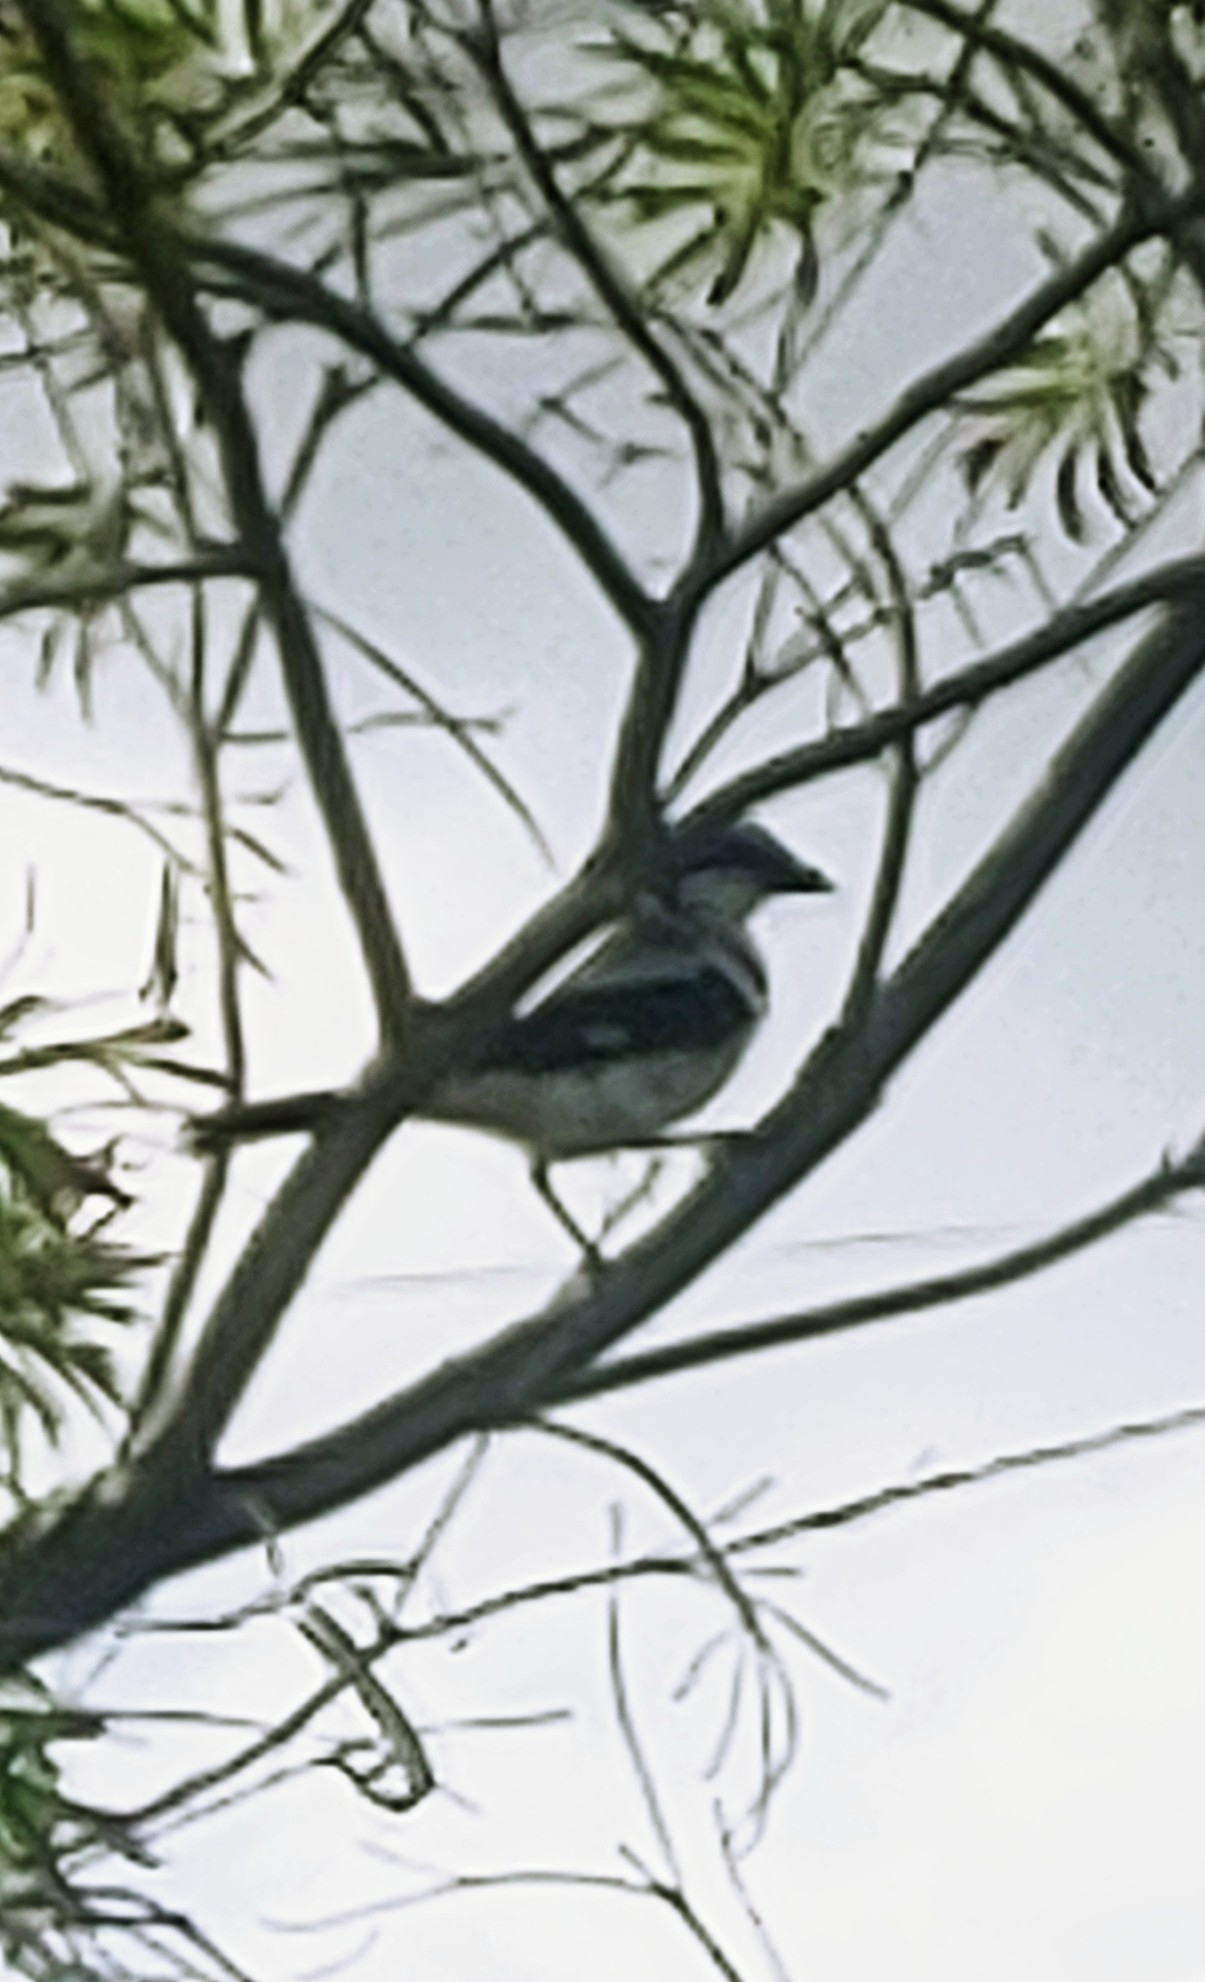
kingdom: Animalia
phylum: Chordata
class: Aves
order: Passeriformes
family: Laniidae
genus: Lanius
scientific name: Lanius ludovicianus
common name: Loggerhead shrike
